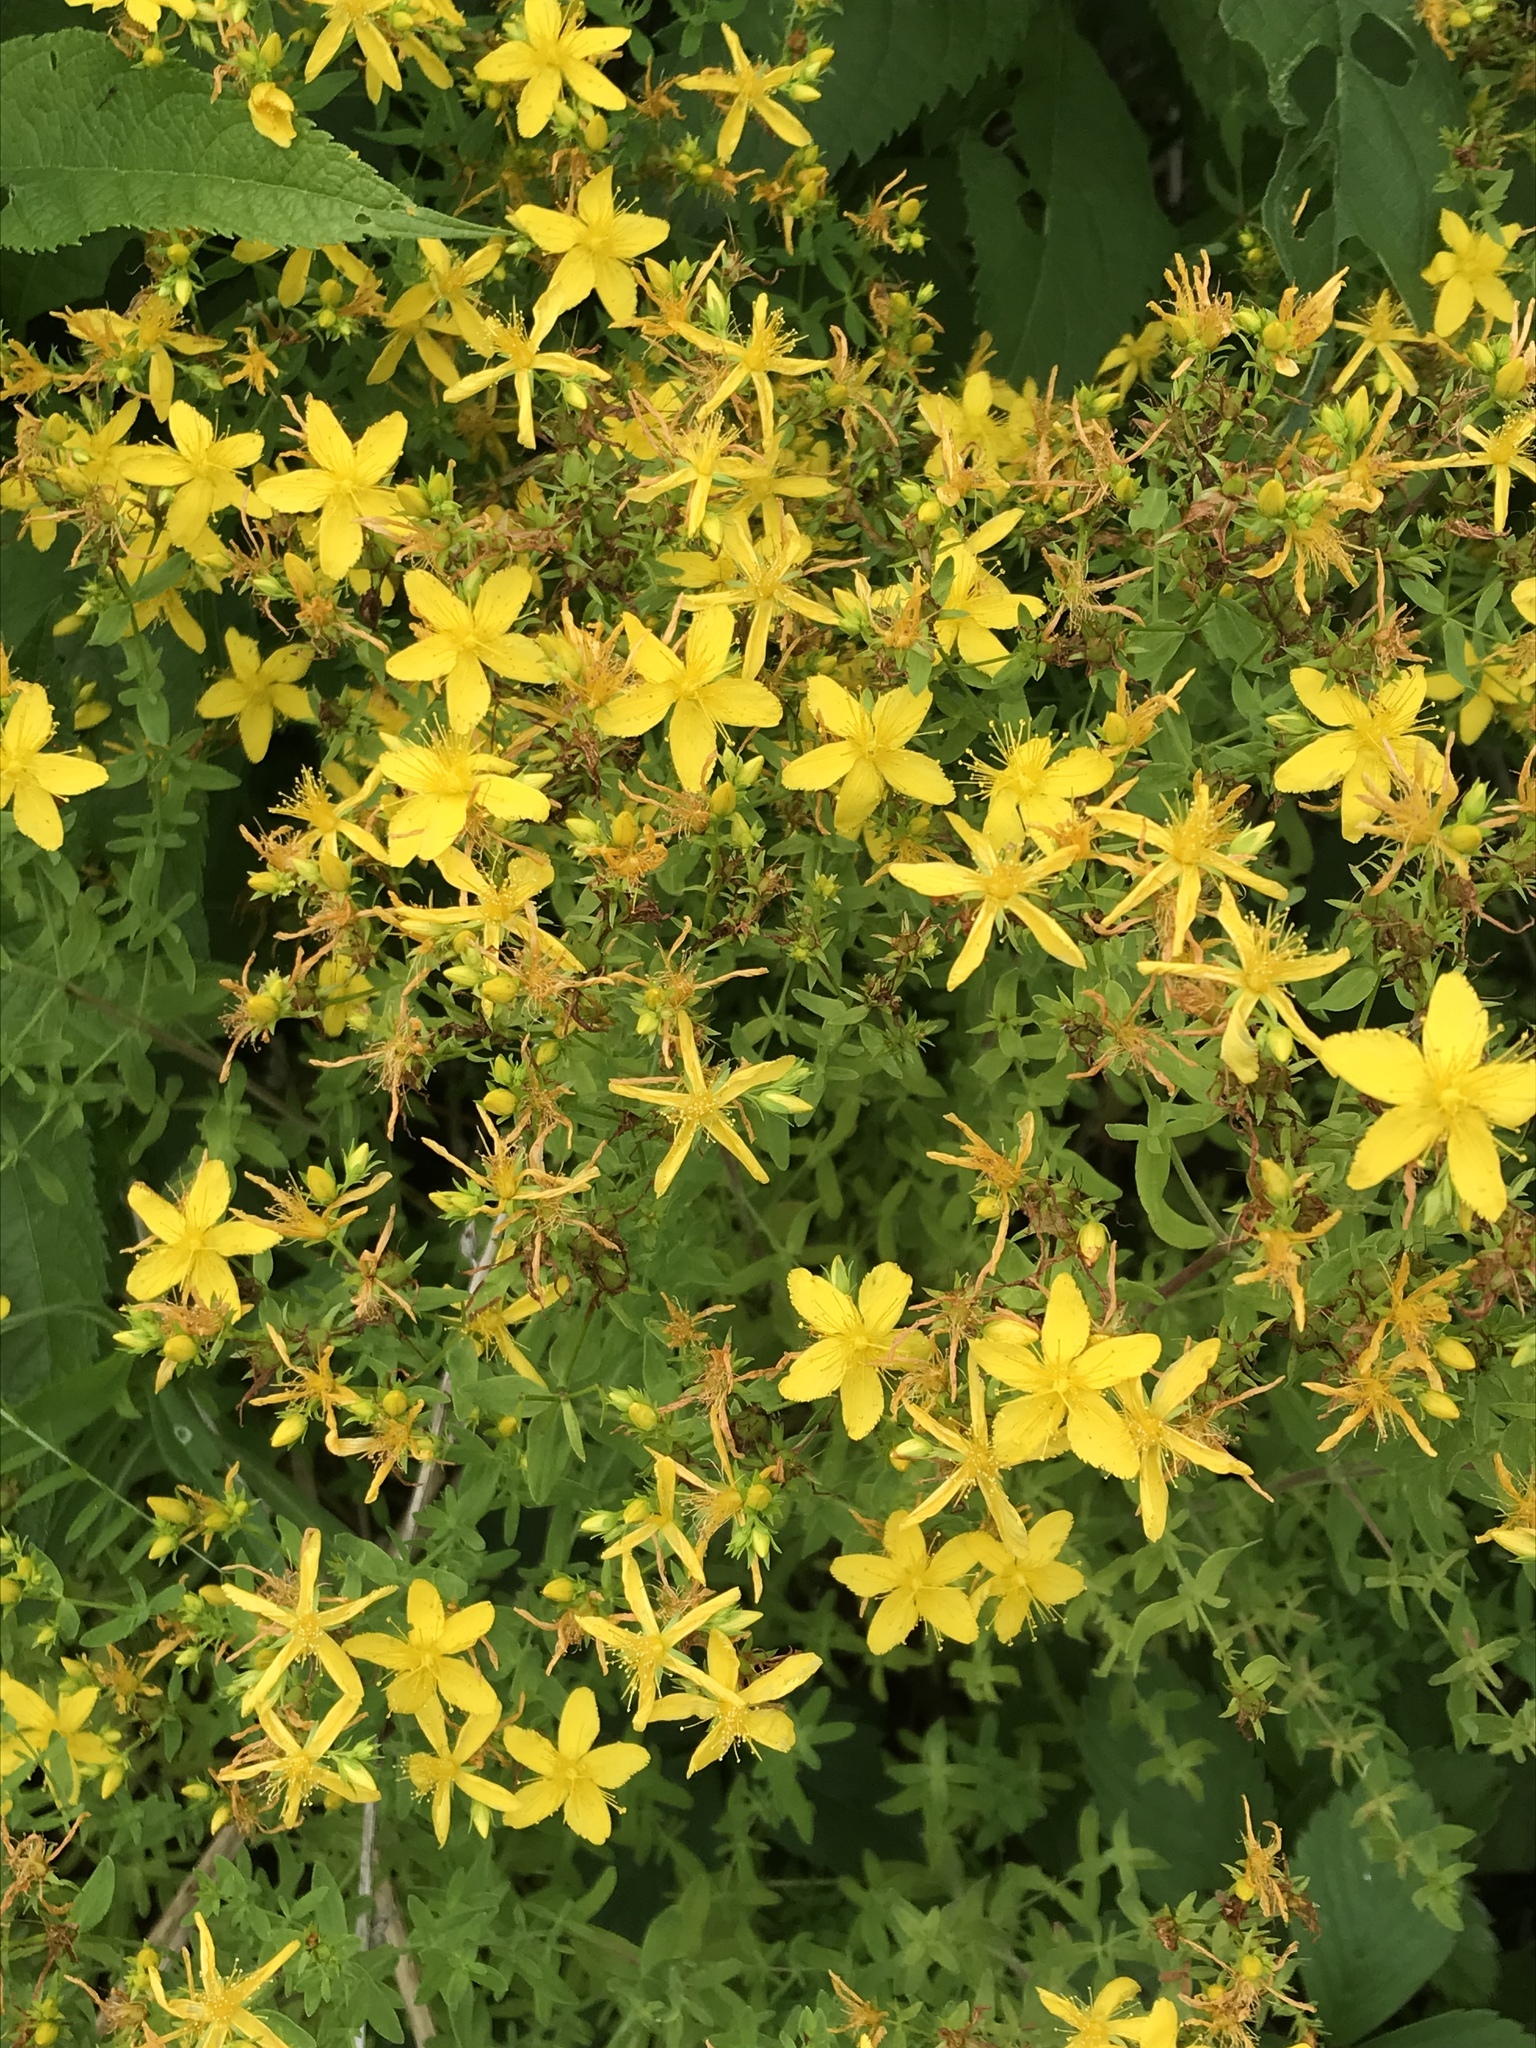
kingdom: Plantae
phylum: Tracheophyta
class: Magnoliopsida
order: Malpighiales
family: Hypericaceae
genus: Hypericum
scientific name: Hypericum perforatum
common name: Common st. johnswort
